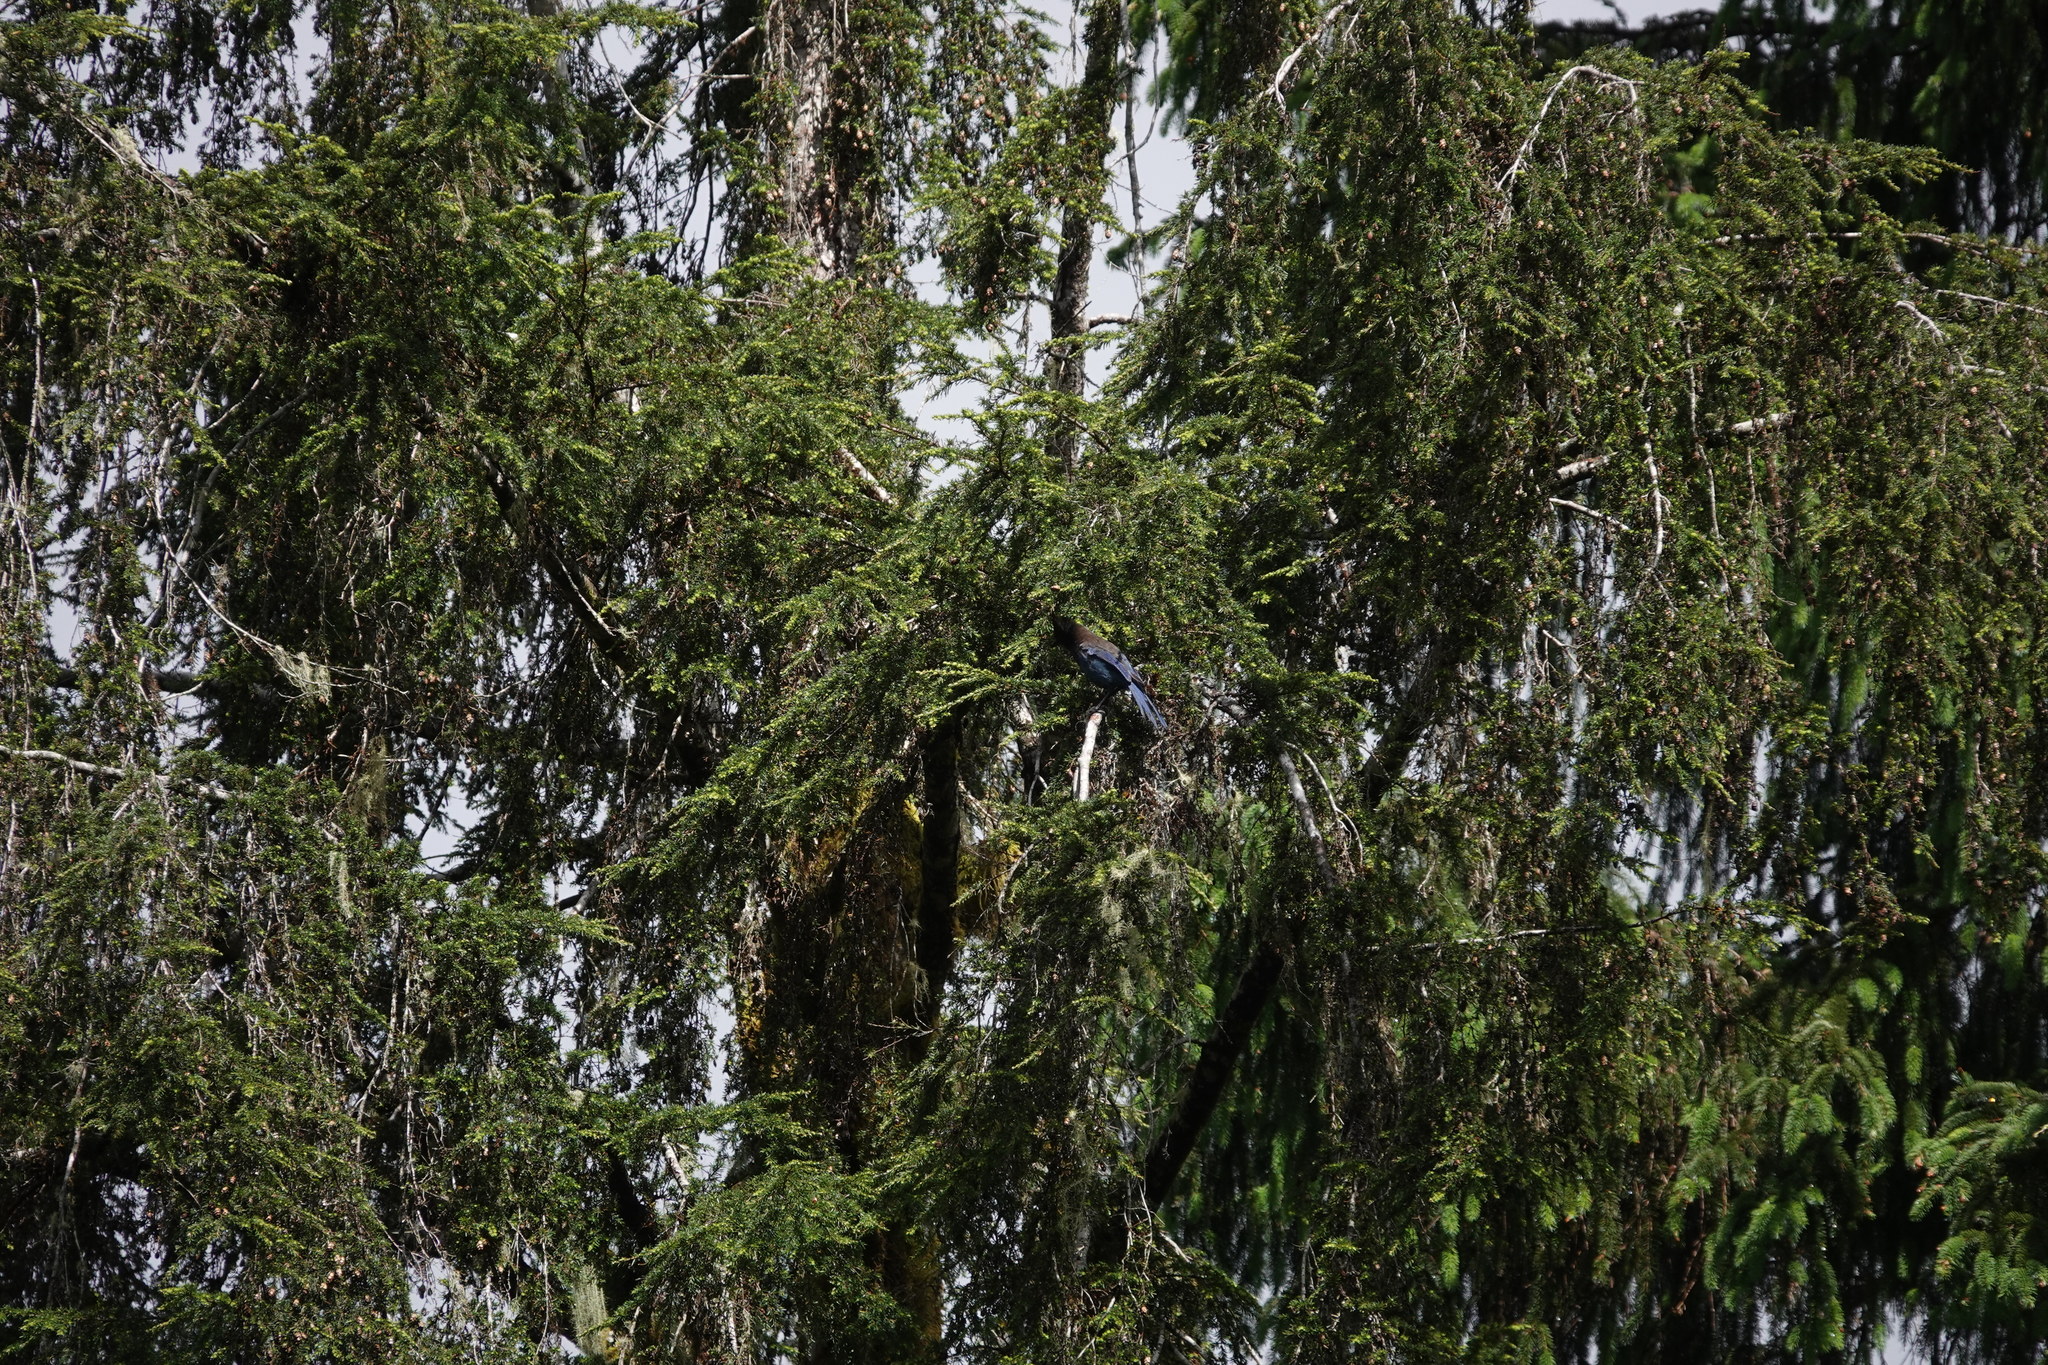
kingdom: Animalia
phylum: Chordata
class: Aves
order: Passeriformes
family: Corvidae
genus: Cyanocitta
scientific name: Cyanocitta stelleri
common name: Steller's jay
